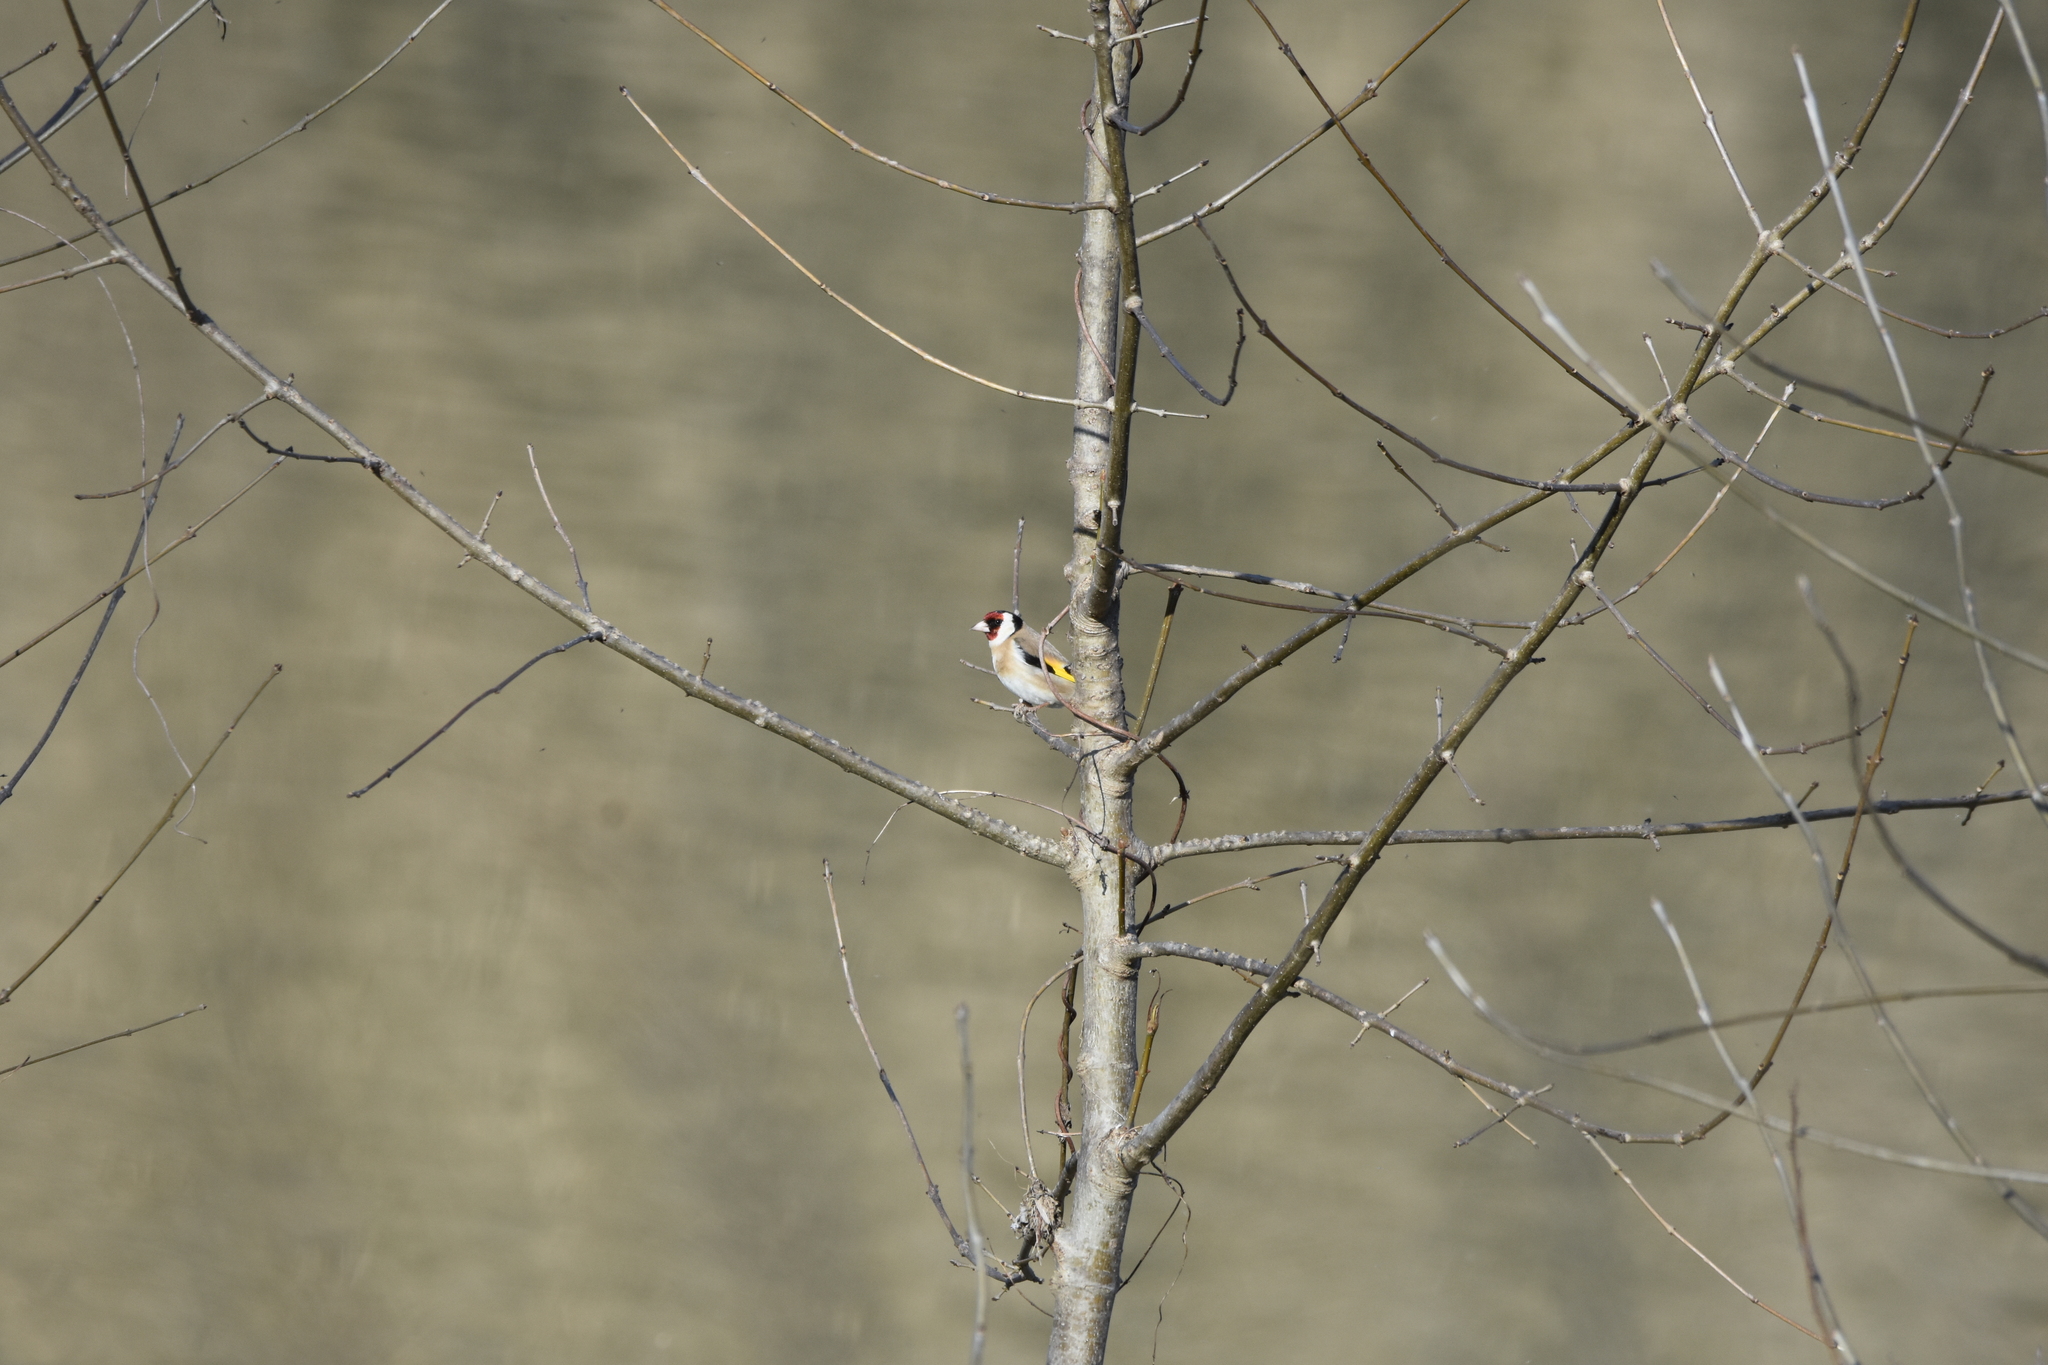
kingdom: Animalia
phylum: Chordata
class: Aves
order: Passeriformes
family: Fringillidae
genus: Carduelis
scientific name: Carduelis carduelis
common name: European goldfinch
